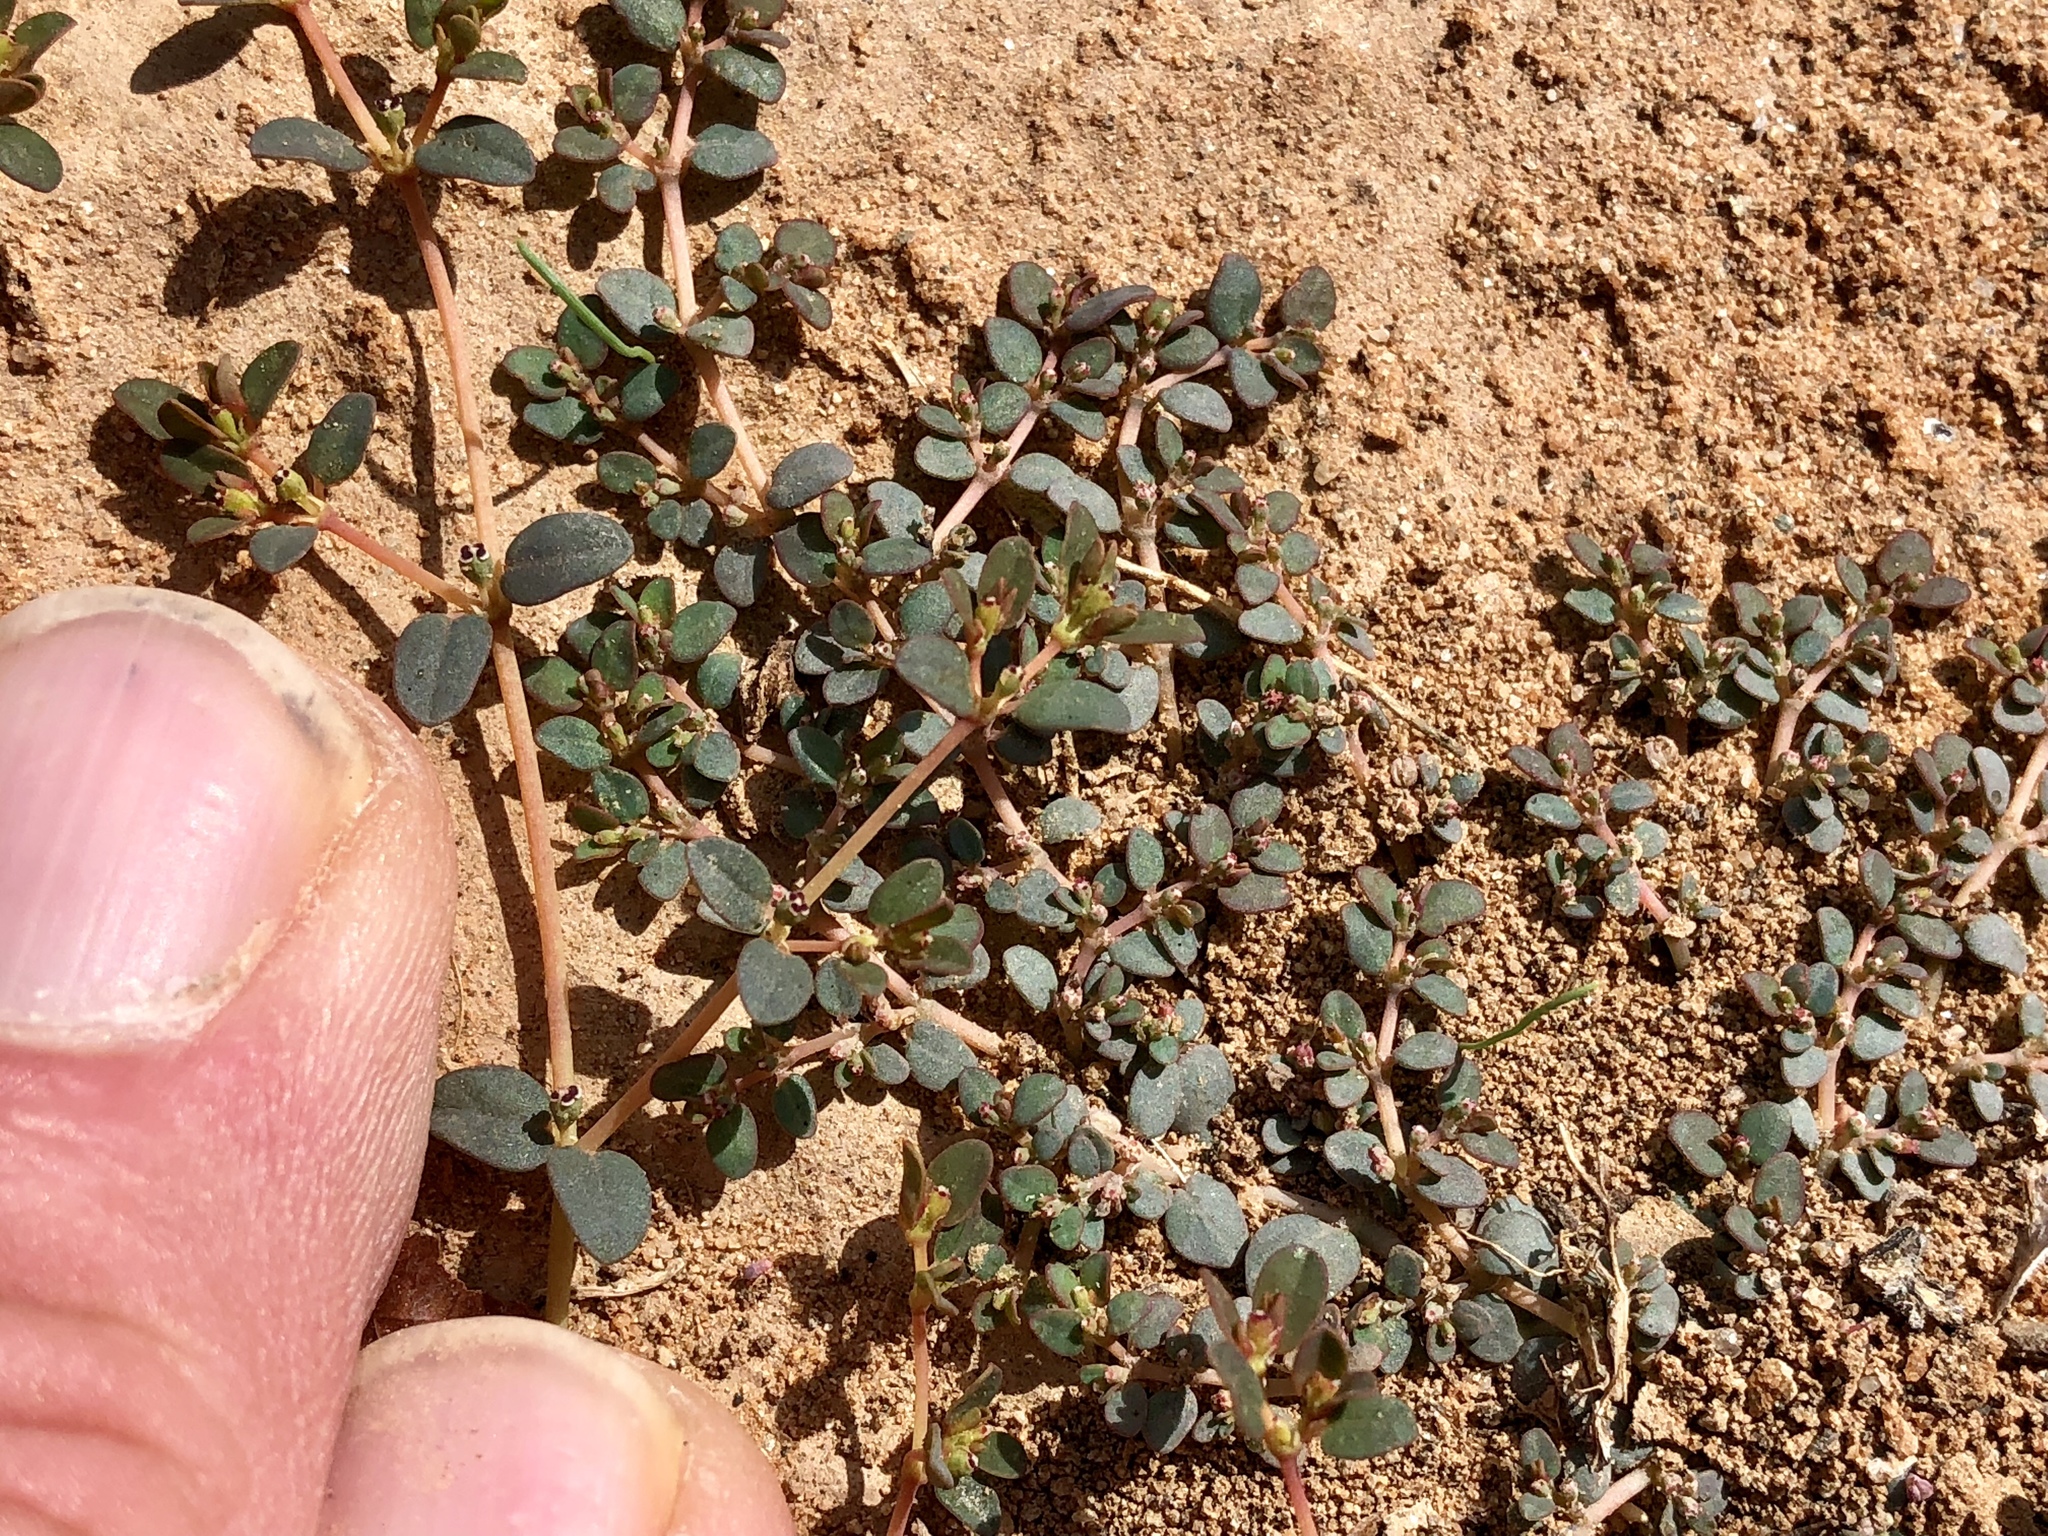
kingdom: Plantae
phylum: Tracheophyta
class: Magnoliopsida
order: Malpighiales
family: Euphorbiaceae
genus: Euphorbia
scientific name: Euphorbia micromera
